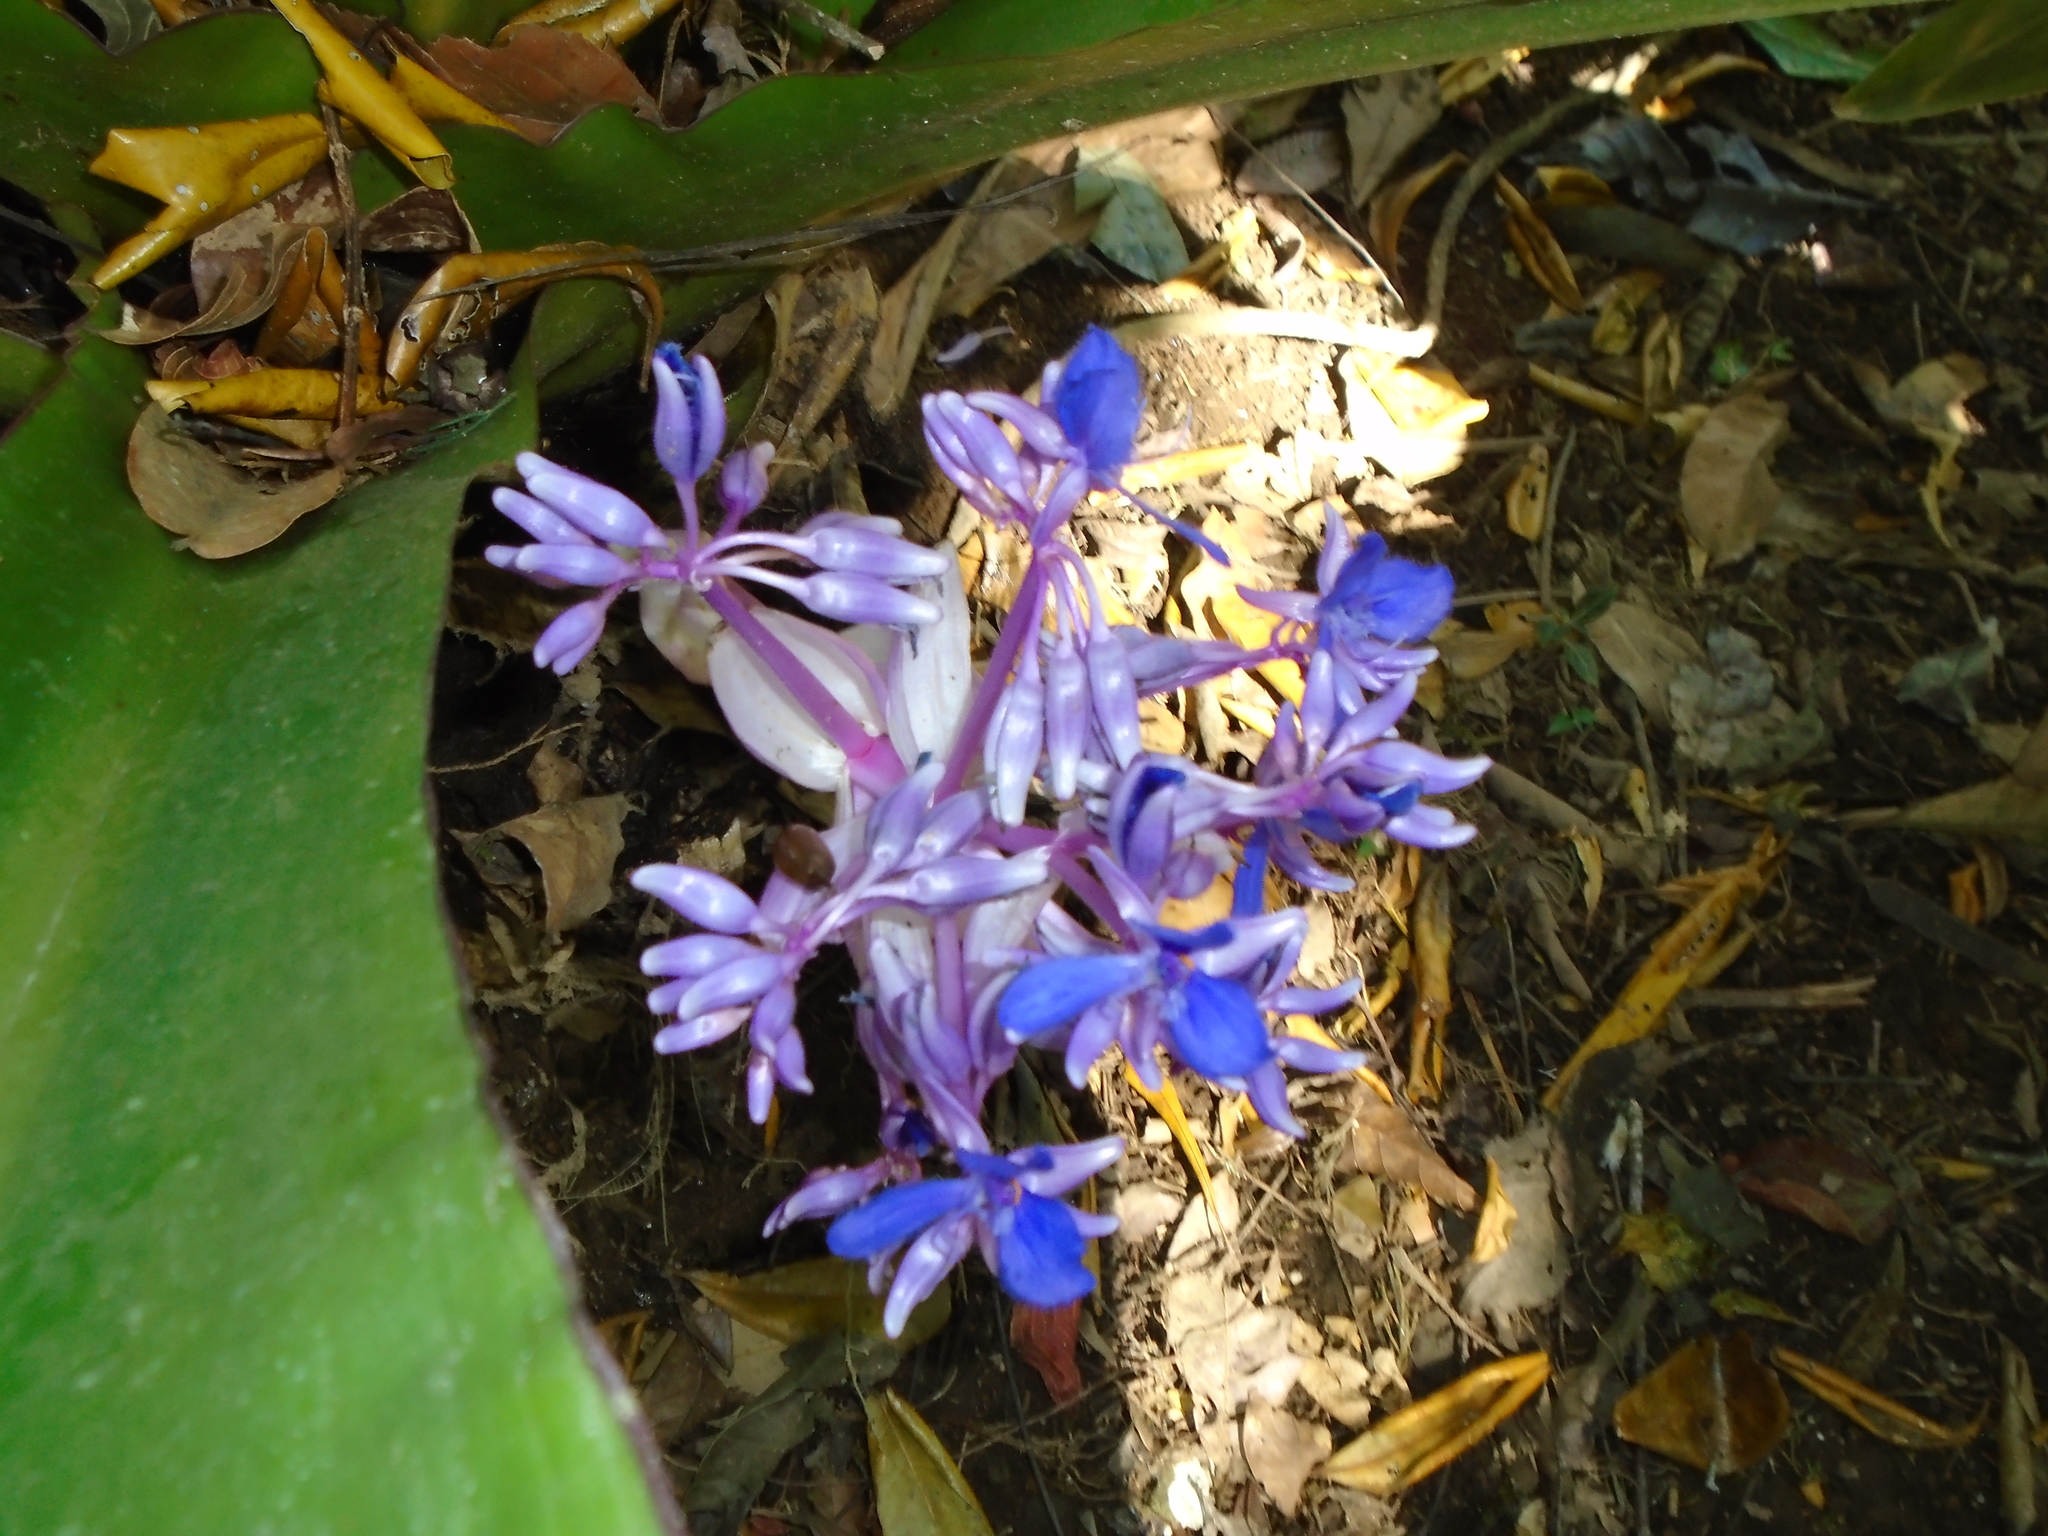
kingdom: Plantae
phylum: Tracheophyta
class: Liliopsida
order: Commelinales
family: Commelinaceae
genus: Cochliostema
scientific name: Cochliostema odoratissimum
